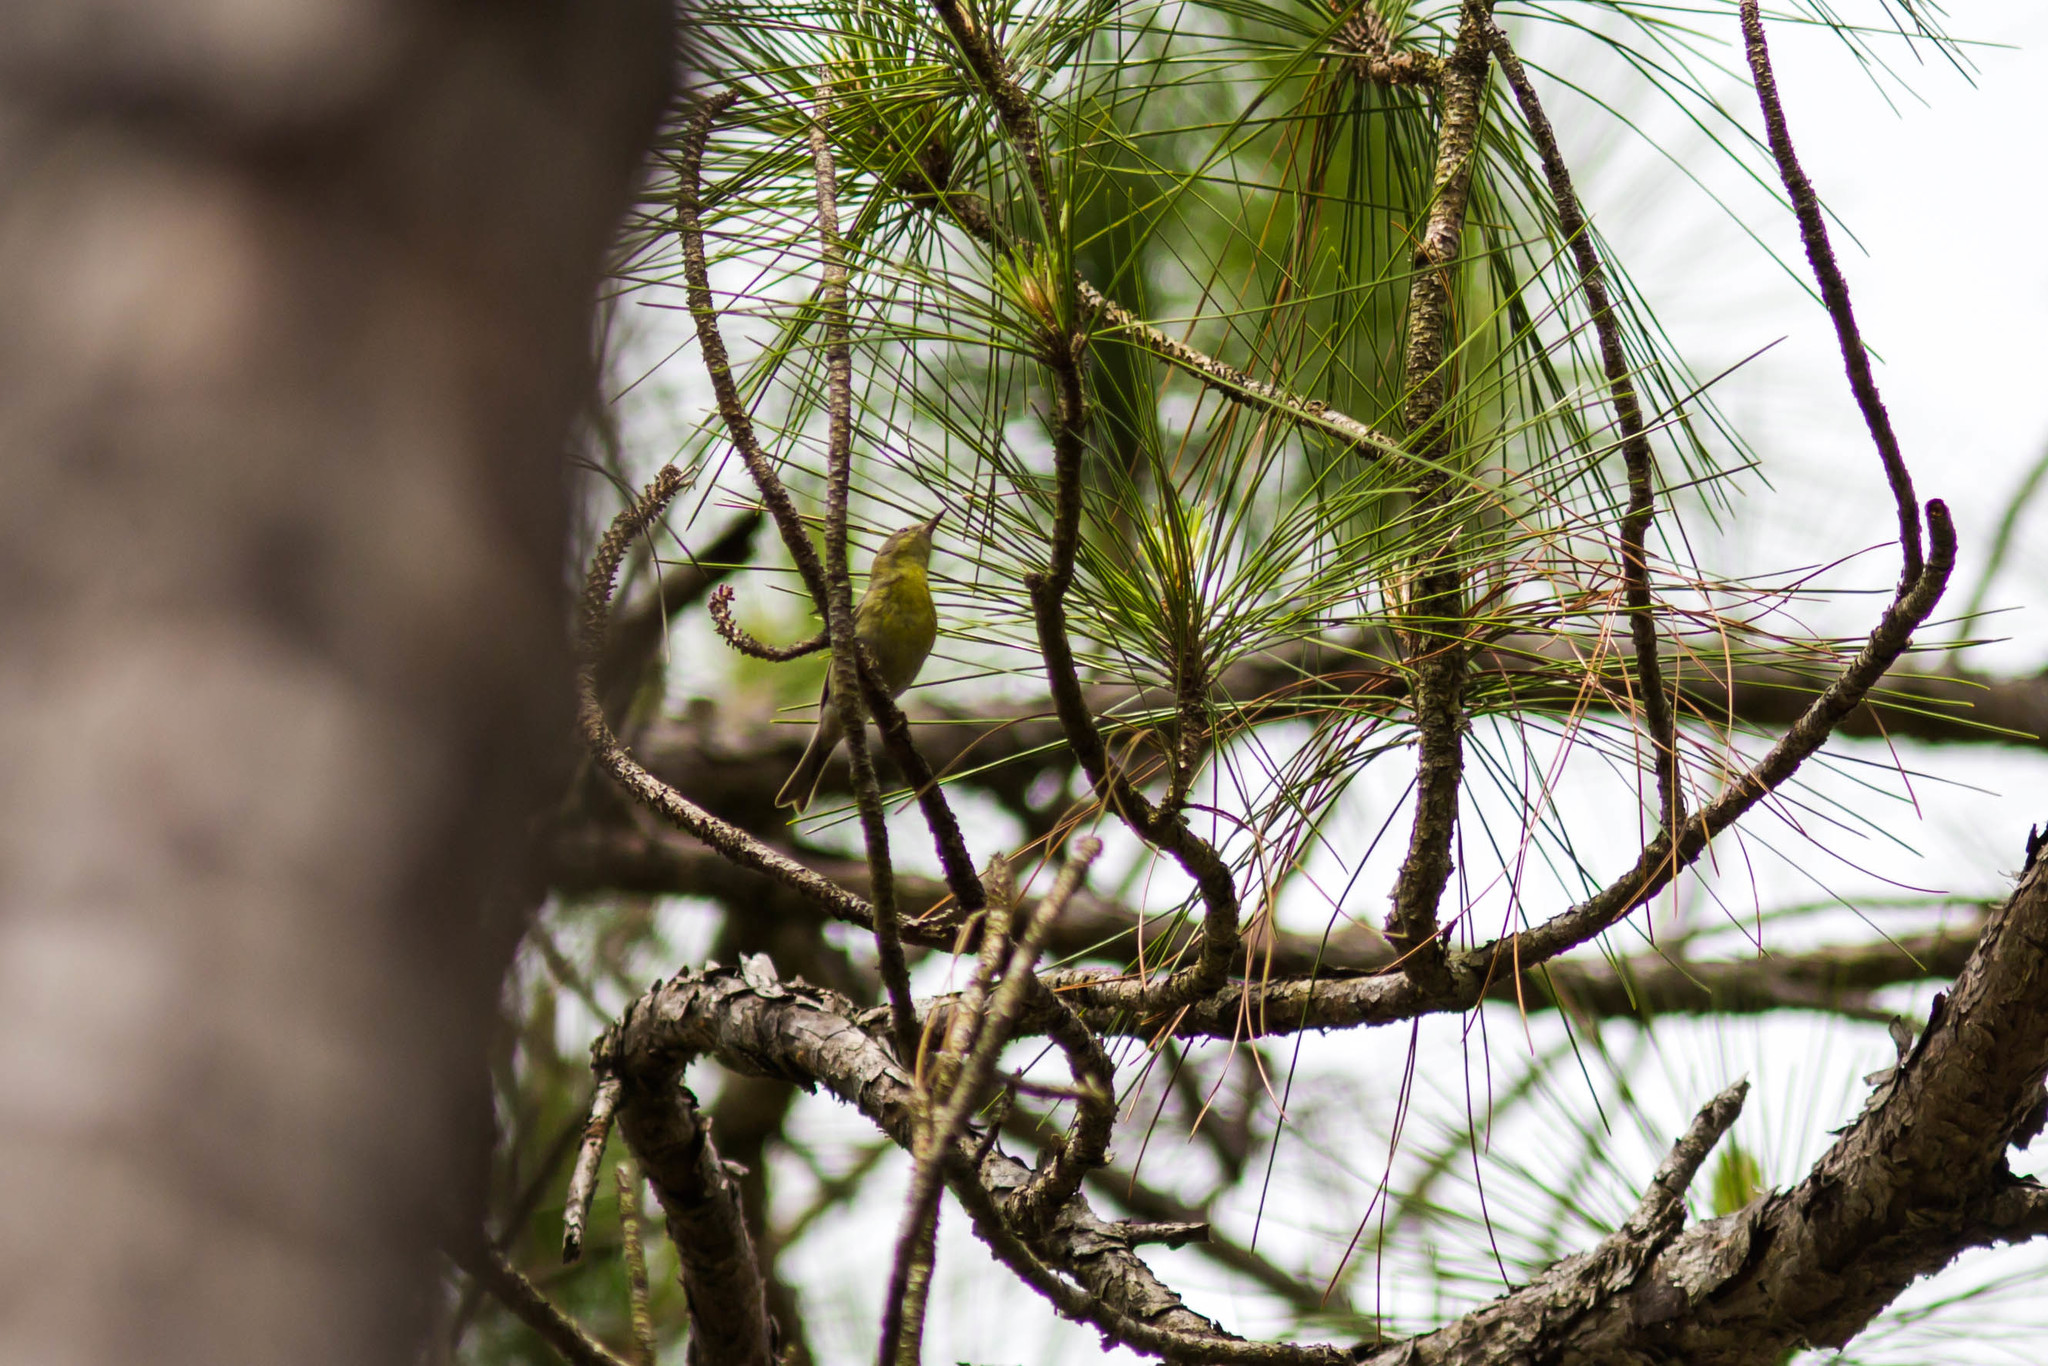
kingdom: Animalia
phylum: Chordata
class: Aves
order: Passeriformes
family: Parulidae
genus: Setophaga
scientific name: Setophaga pinus
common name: Pine warbler
